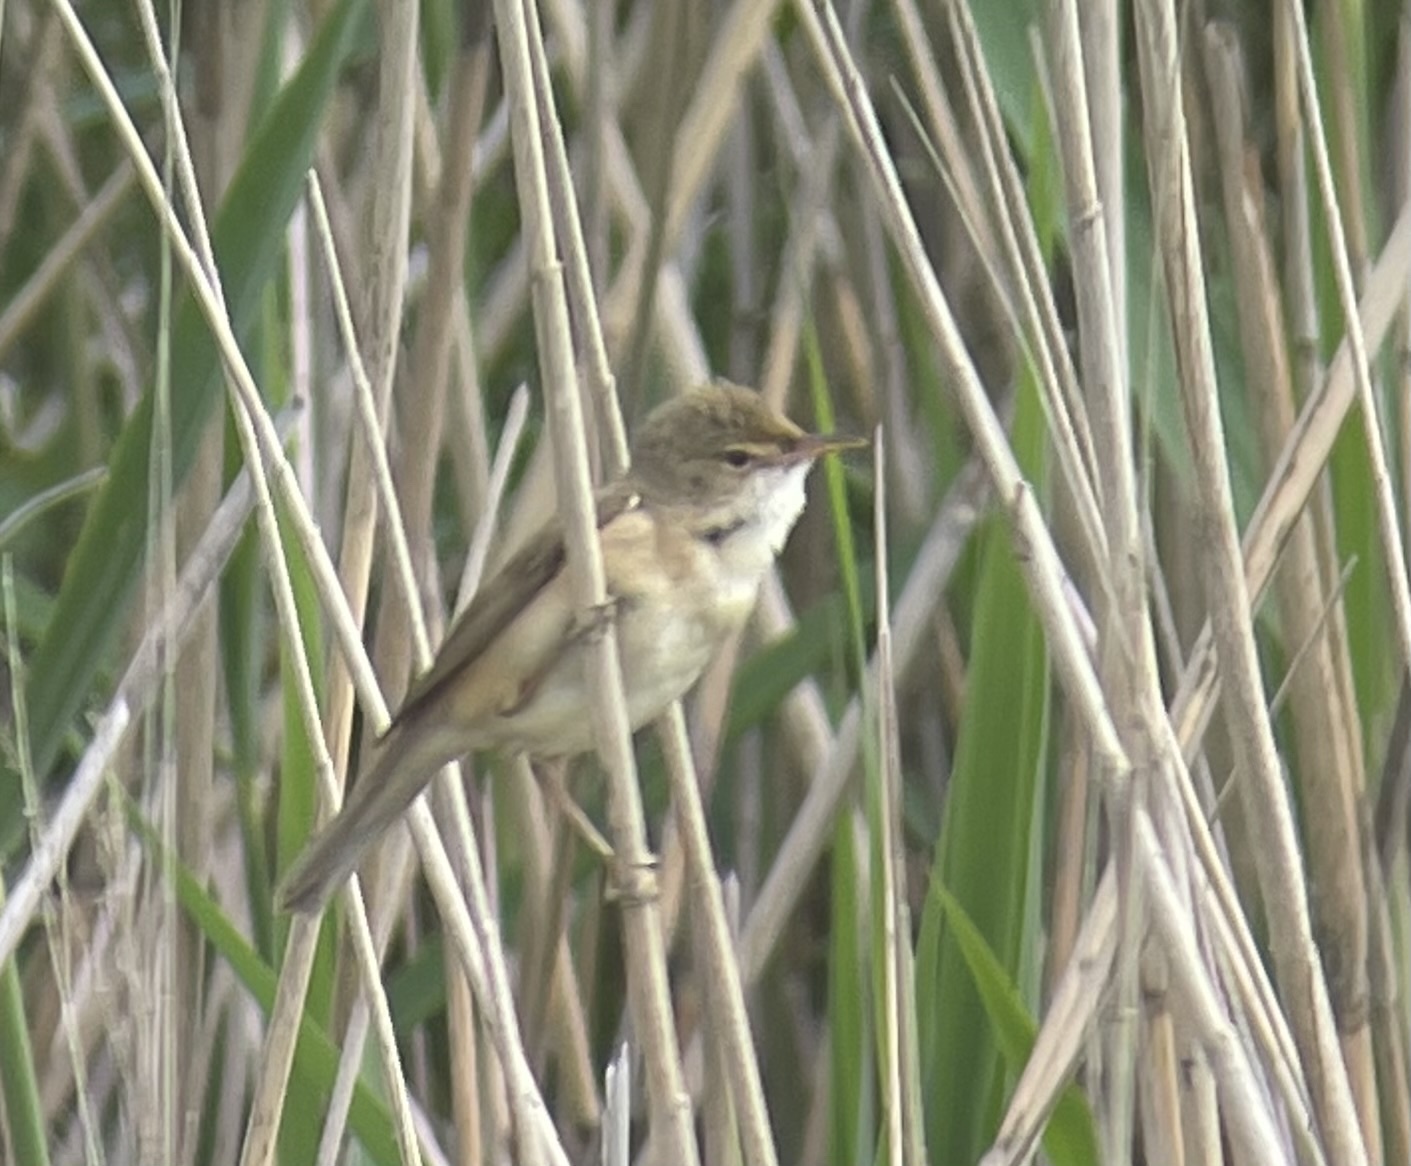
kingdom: Animalia
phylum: Chordata
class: Aves
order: Passeriformes
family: Acrocephalidae
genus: Acrocephalus
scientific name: Acrocephalus scirpaceus
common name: Eurasian reed warbler
